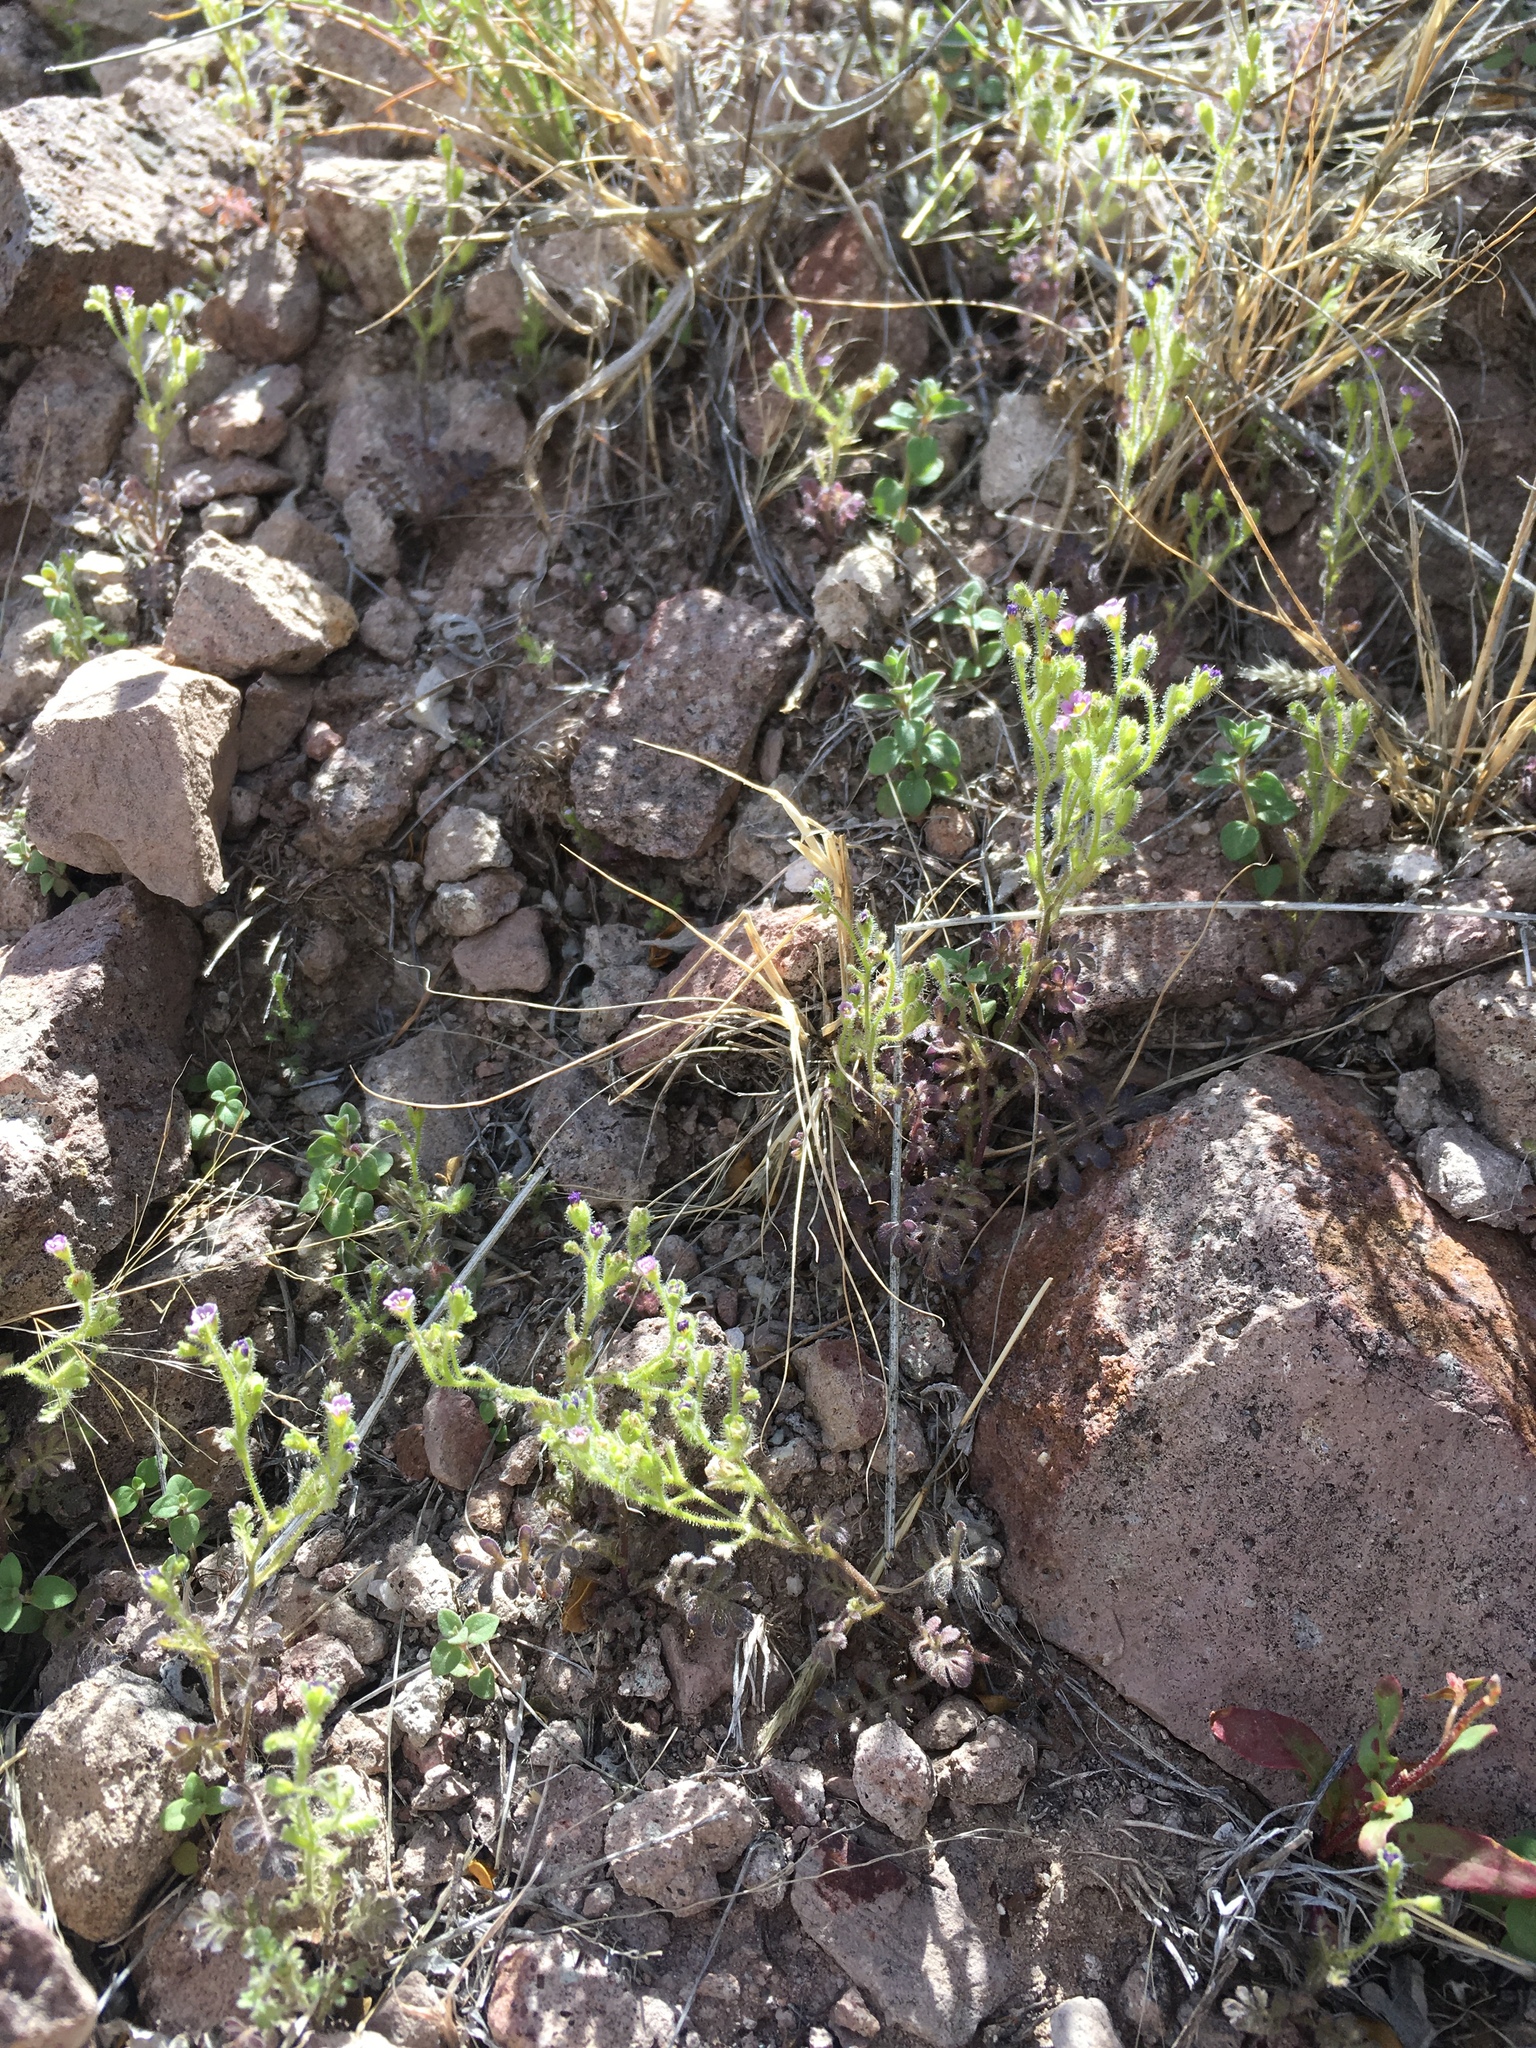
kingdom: Plantae
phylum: Tracheophyta
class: Magnoliopsida
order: Boraginales
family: Hydrophyllaceae
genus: Eucrypta
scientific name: Eucrypta micrantha
